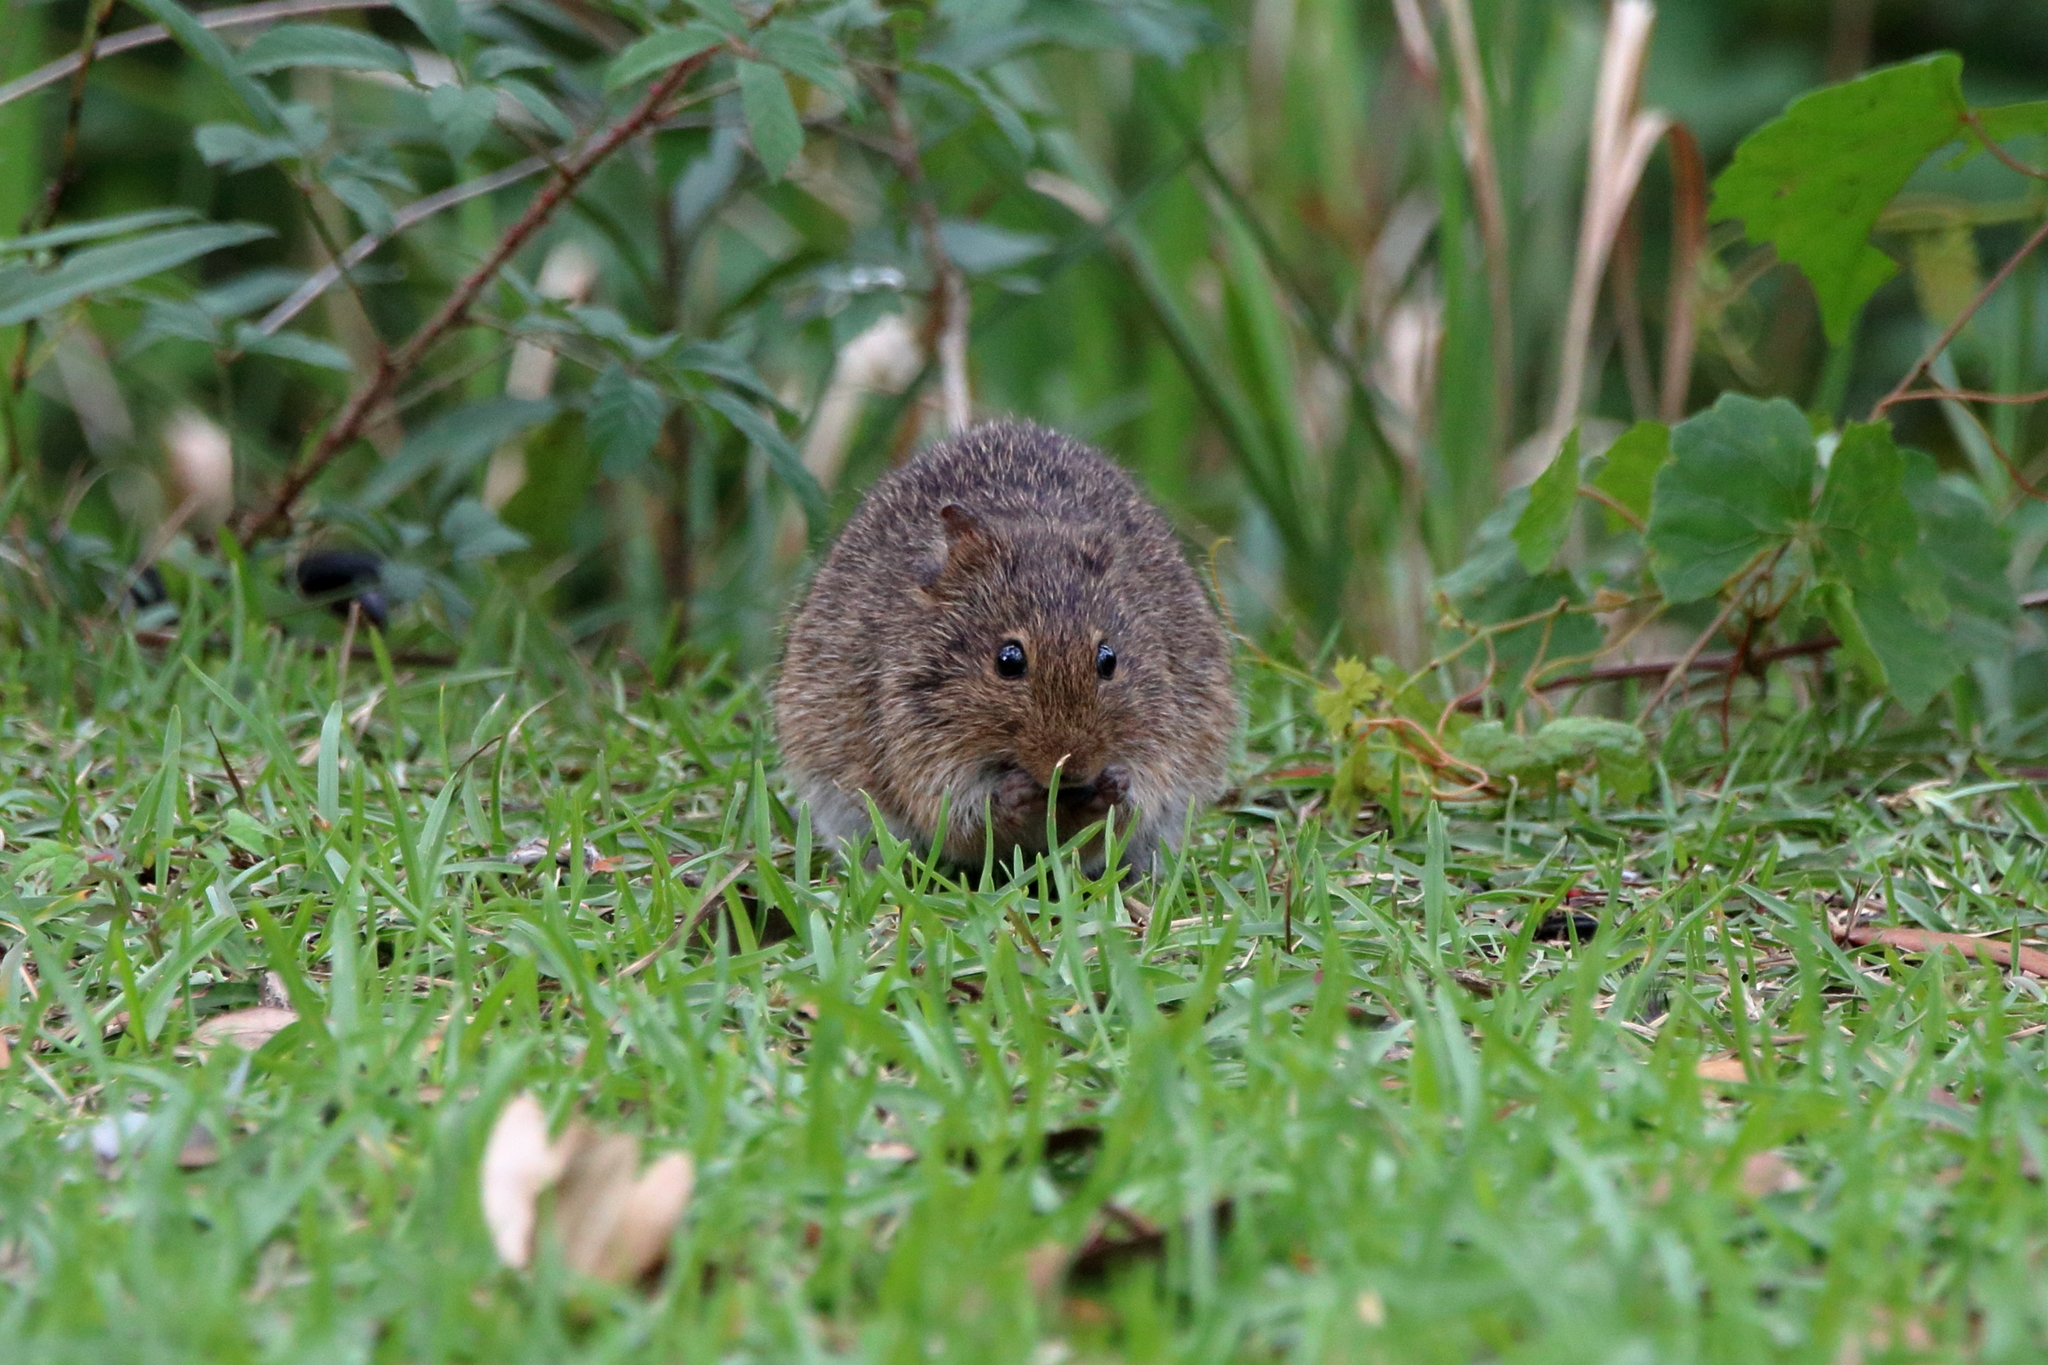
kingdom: Animalia
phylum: Chordata
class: Mammalia
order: Rodentia
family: Cricetidae
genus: Sigmodon
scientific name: Sigmodon hispidus
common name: Hispid cotton rat
